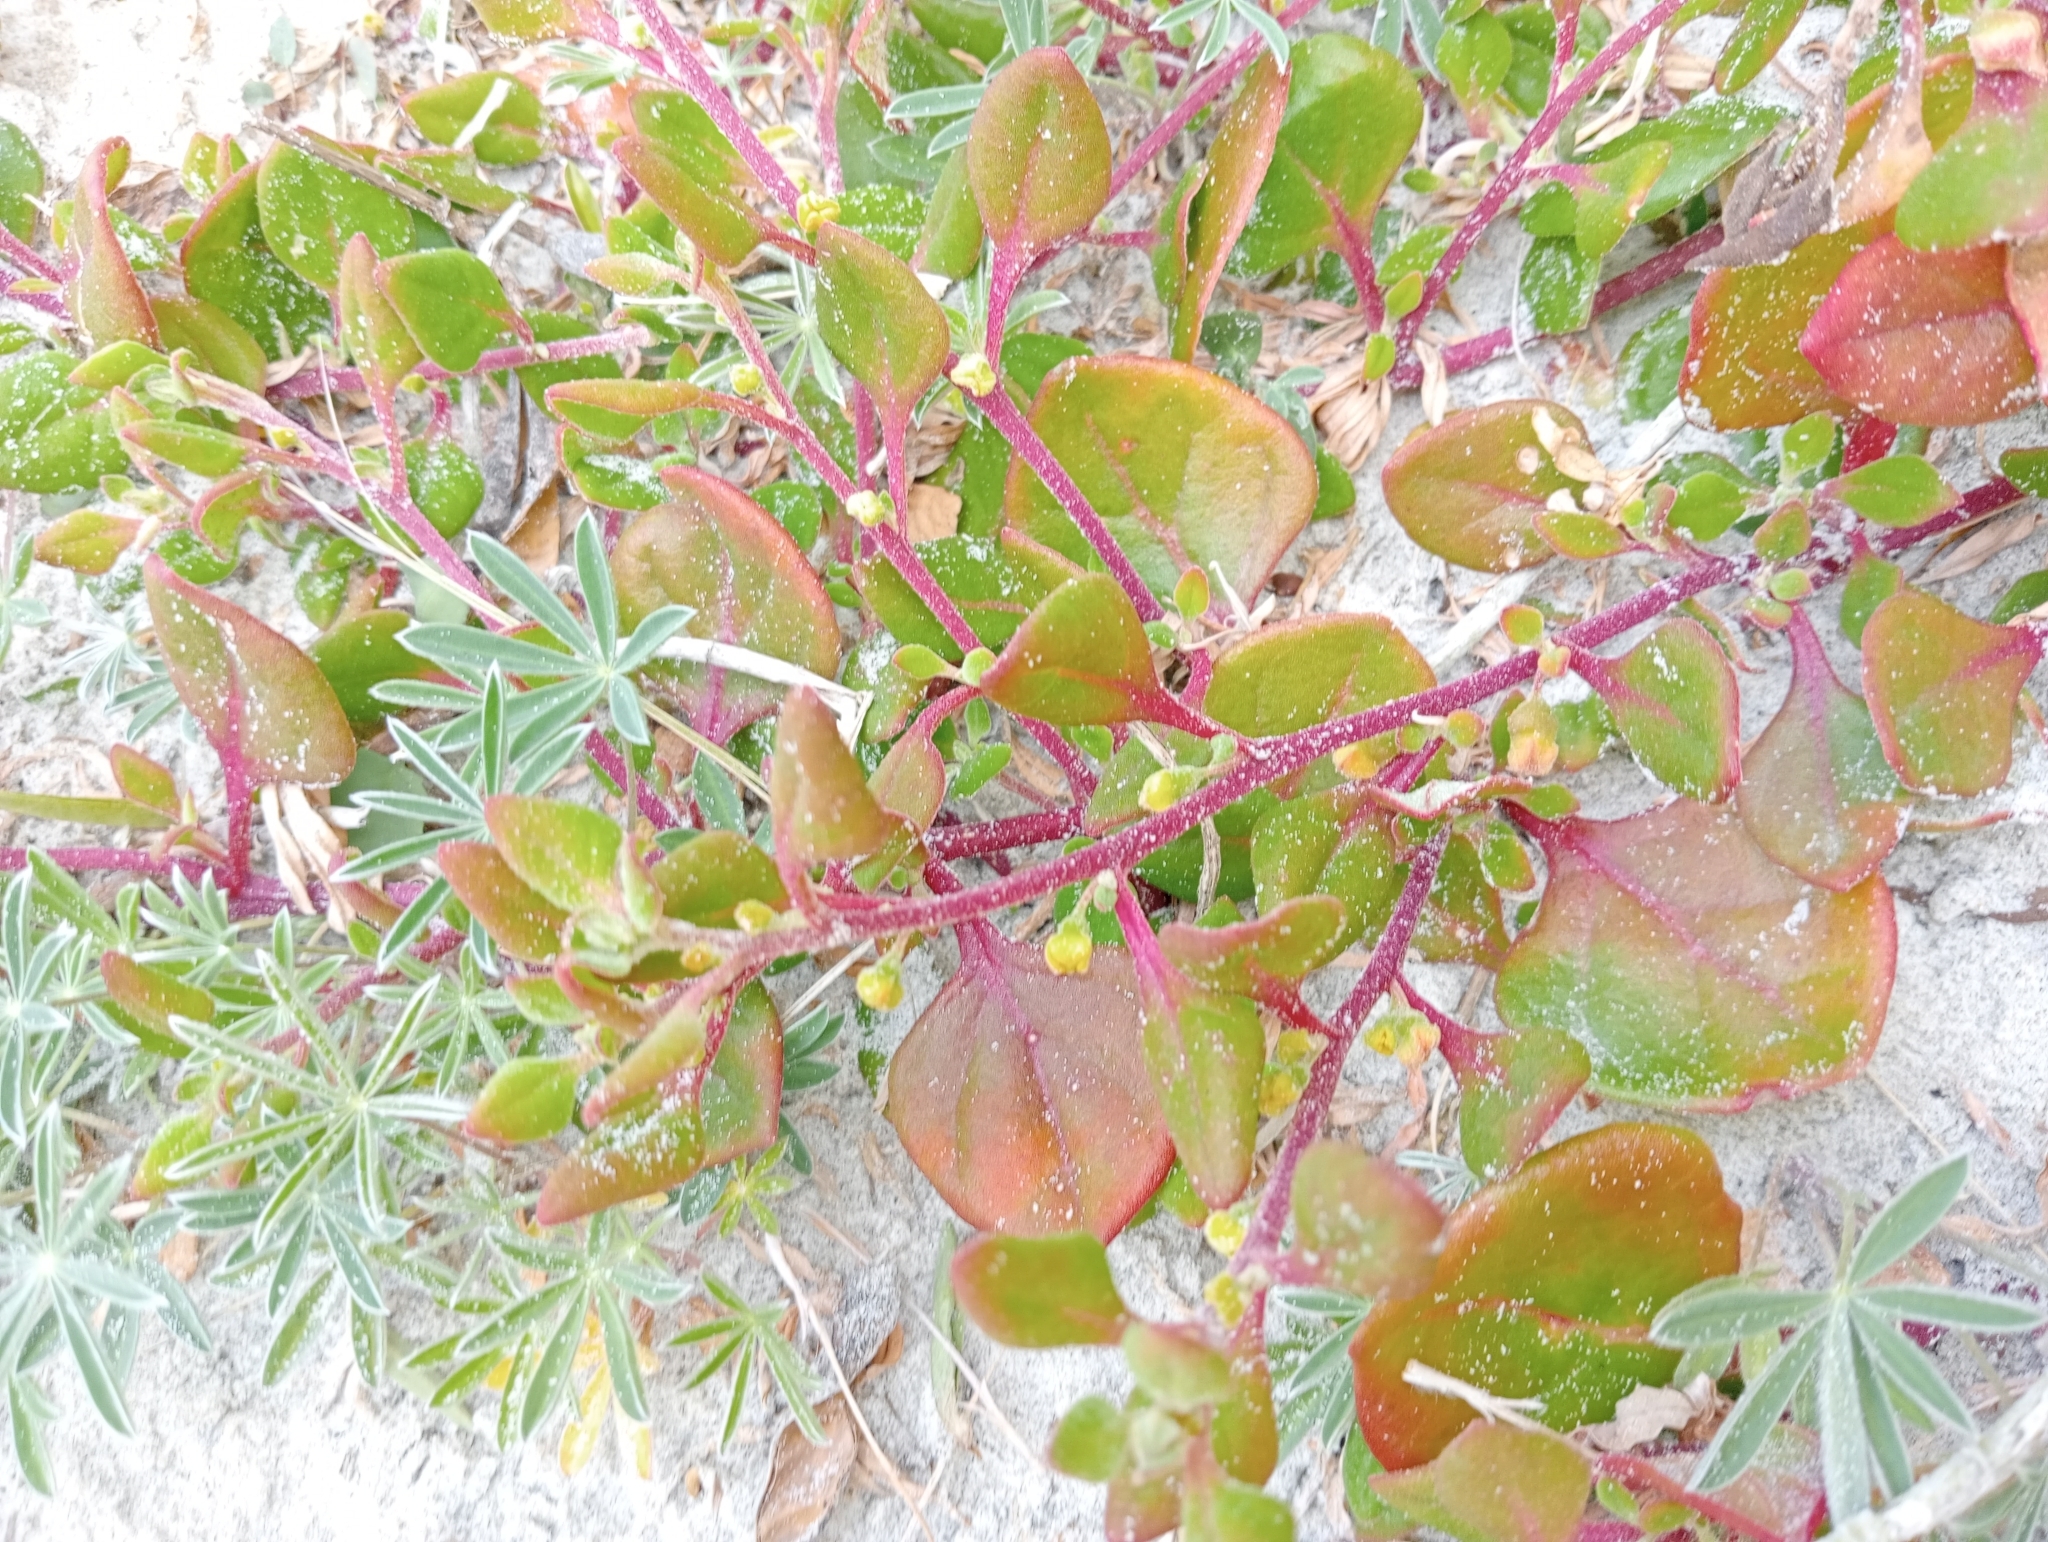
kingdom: Plantae
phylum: Tracheophyta
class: Magnoliopsida
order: Caryophyllales
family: Aizoaceae
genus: Tetragonia
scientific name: Tetragonia implexicoma
